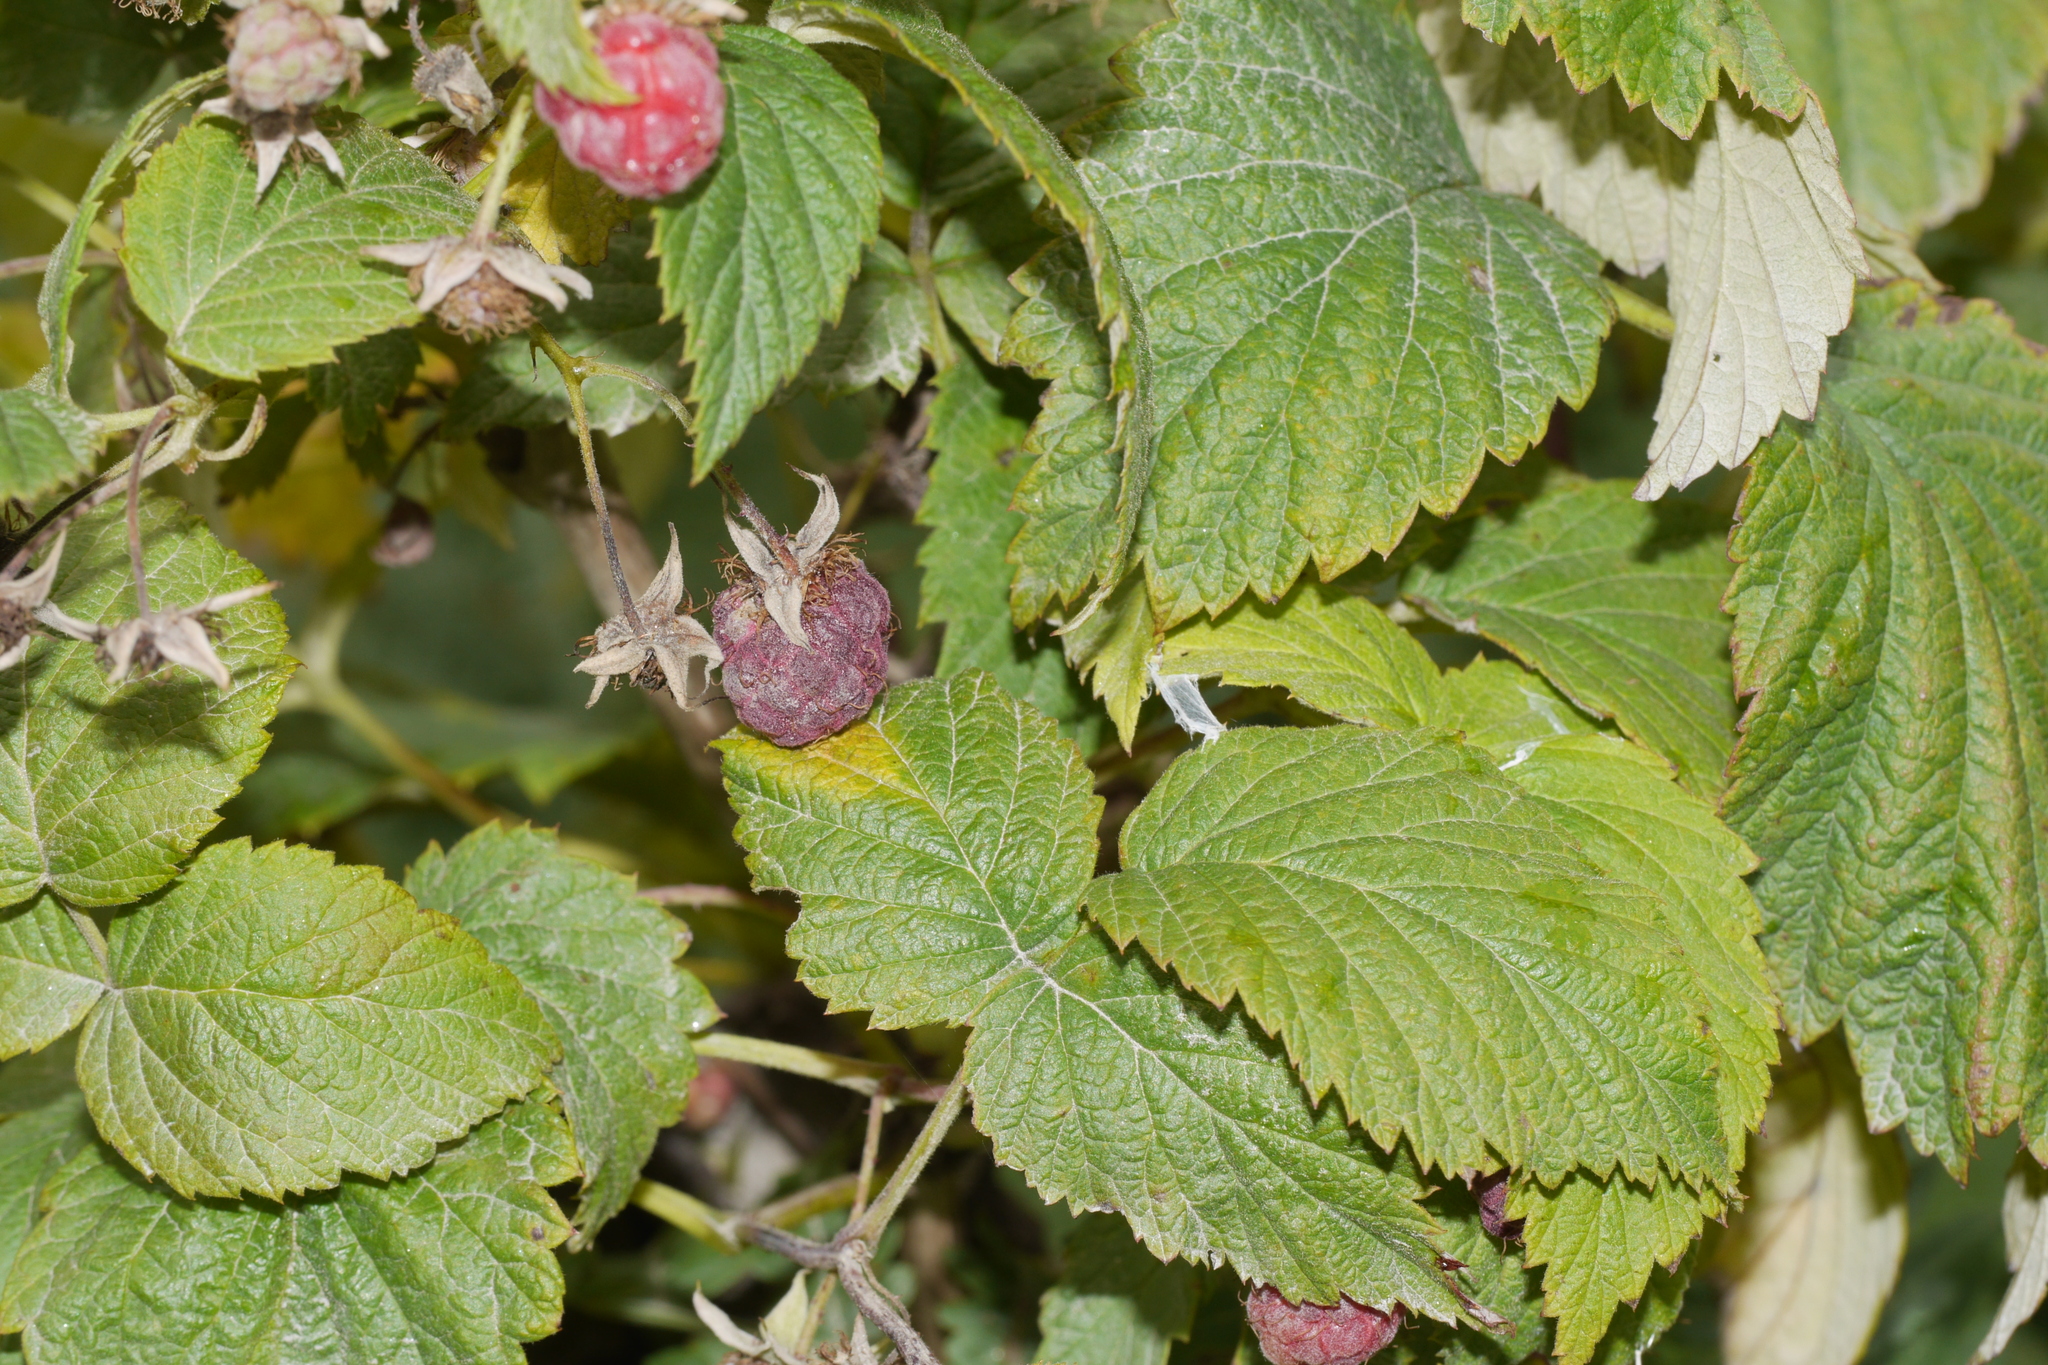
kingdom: Plantae
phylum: Tracheophyta
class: Magnoliopsida
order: Rosales
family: Rosaceae
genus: Rubus
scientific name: Rubus idaeus
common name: Raspberry
